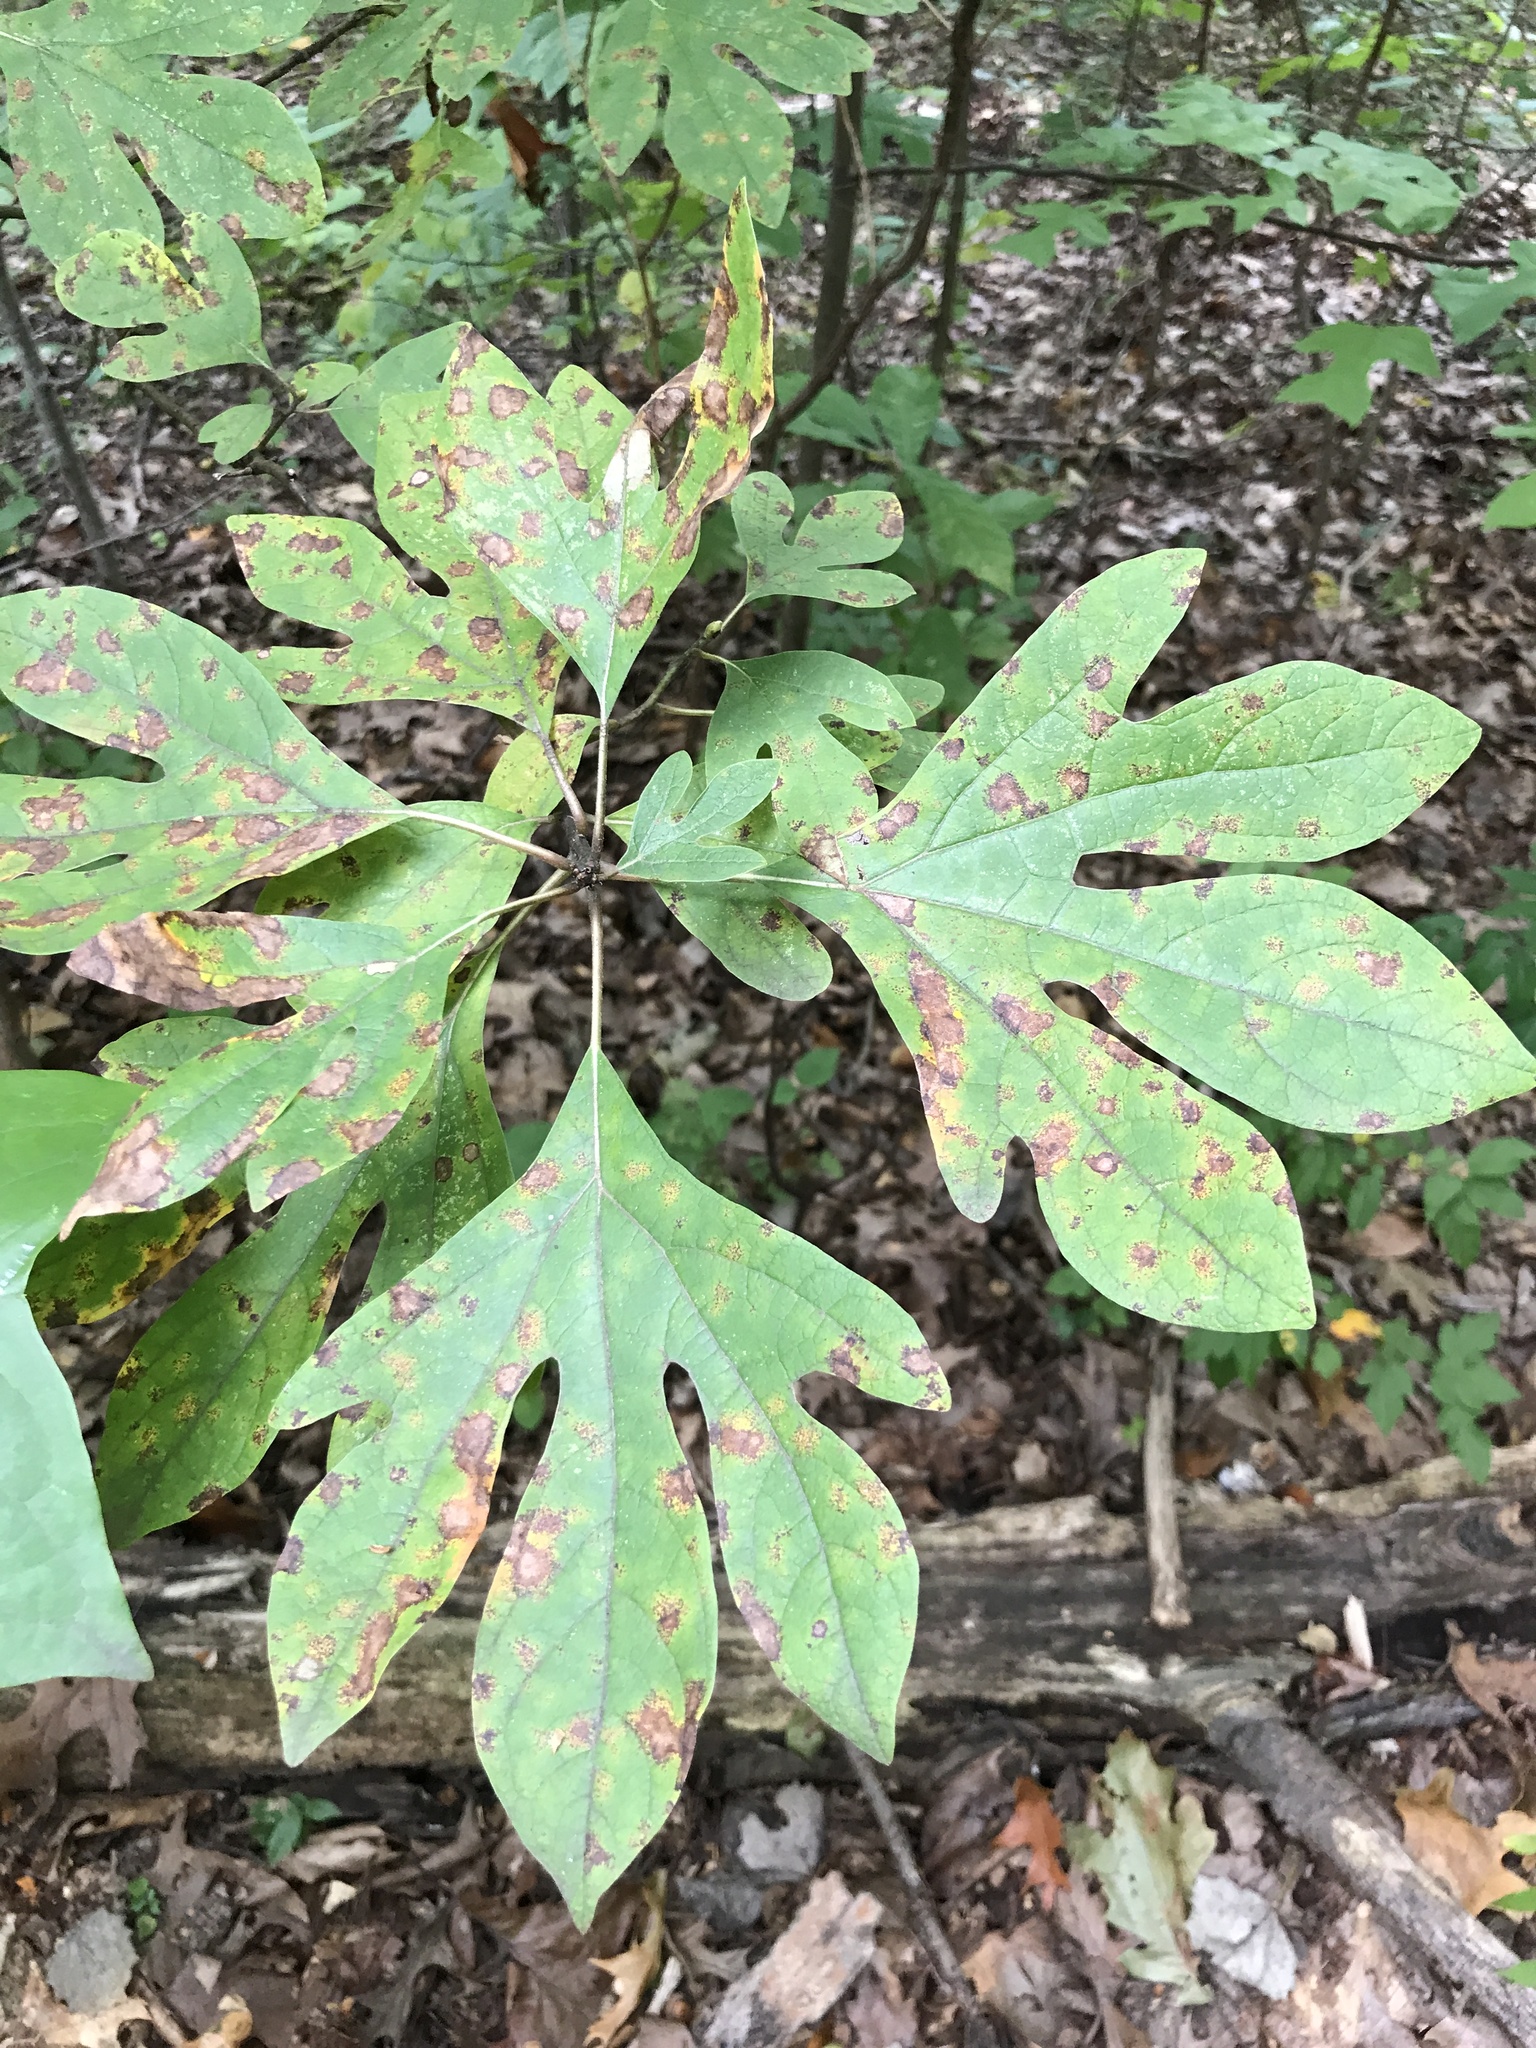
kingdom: Plantae
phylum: Tracheophyta
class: Magnoliopsida
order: Laurales
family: Lauraceae
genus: Sassafras
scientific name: Sassafras albidum
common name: Sassafras
